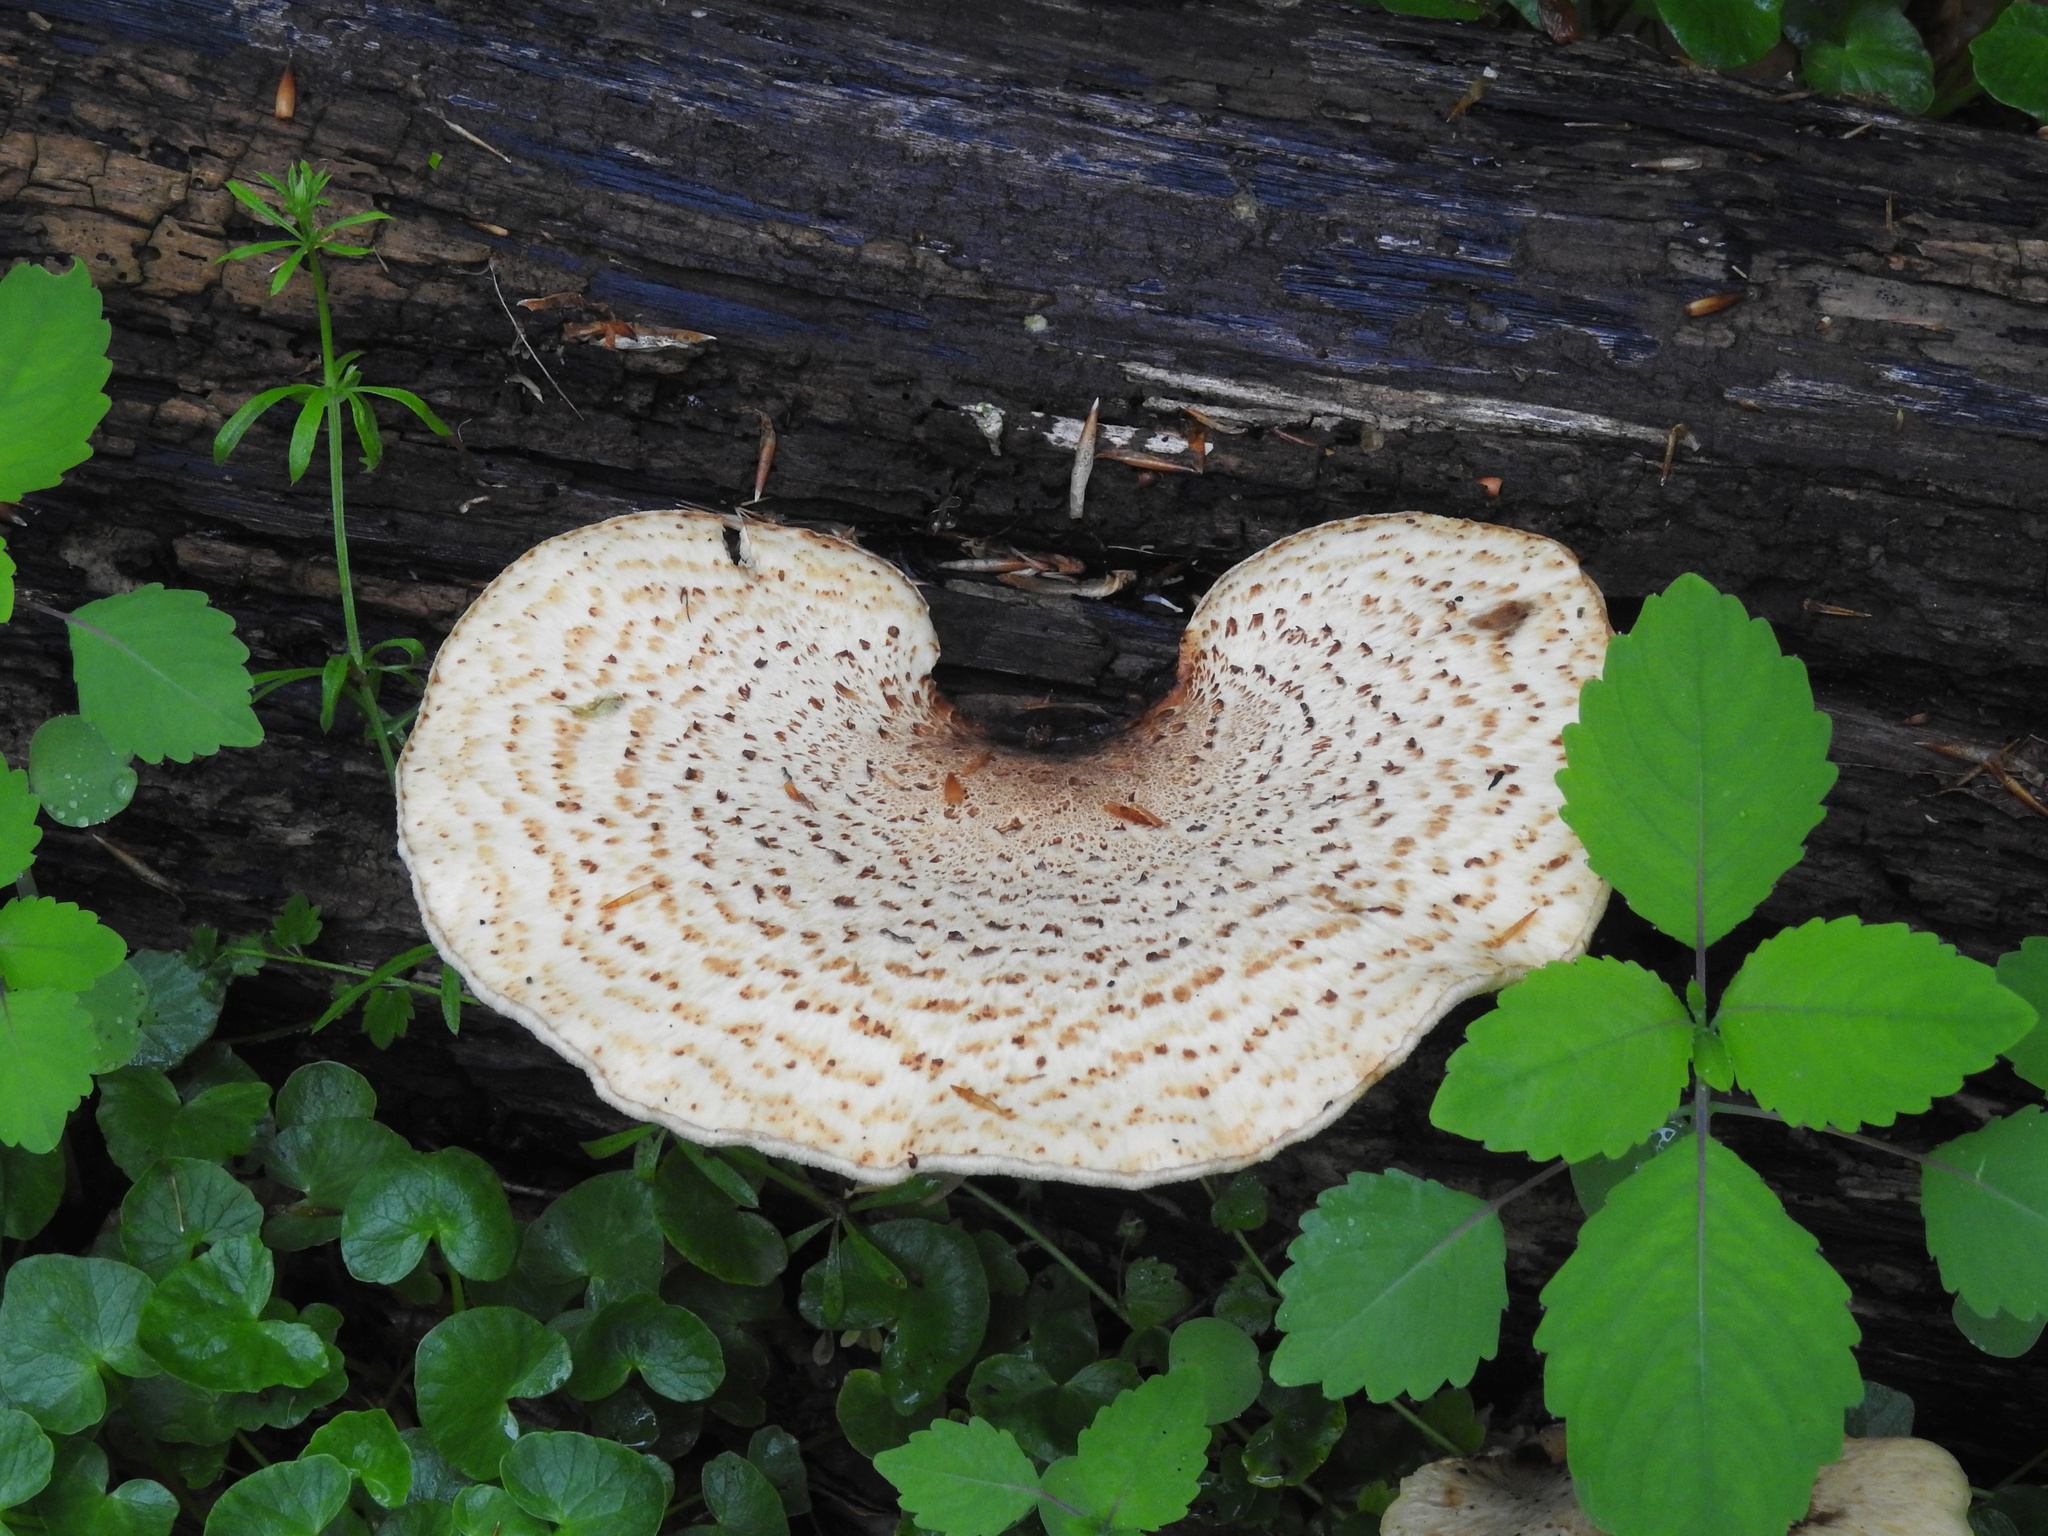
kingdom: Fungi
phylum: Basidiomycota
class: Agaricomycetes
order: Polyporales
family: Polyporaceae
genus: Cerioporus
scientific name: Cerioporus squamosus
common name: Dryad's saddle
